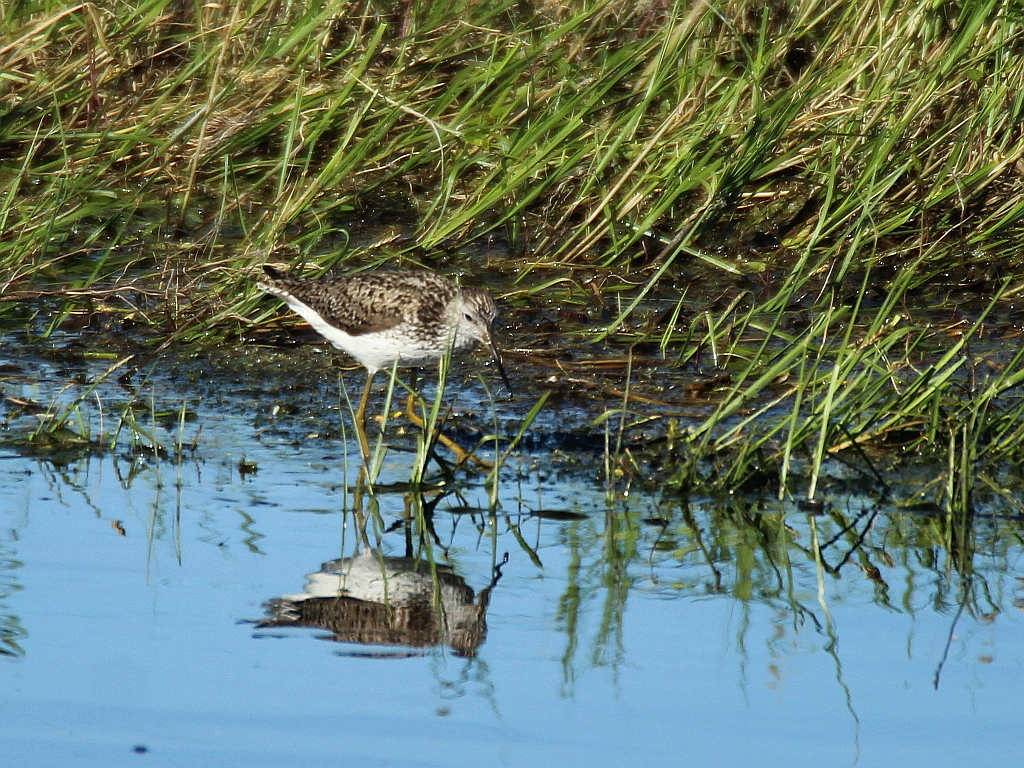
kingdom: Animalia
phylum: Chordata
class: Aves
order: Charadriiformes
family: Scolopacidae
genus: Tringa
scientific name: Tringa stagnatilis
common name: Marsh sandpiper
